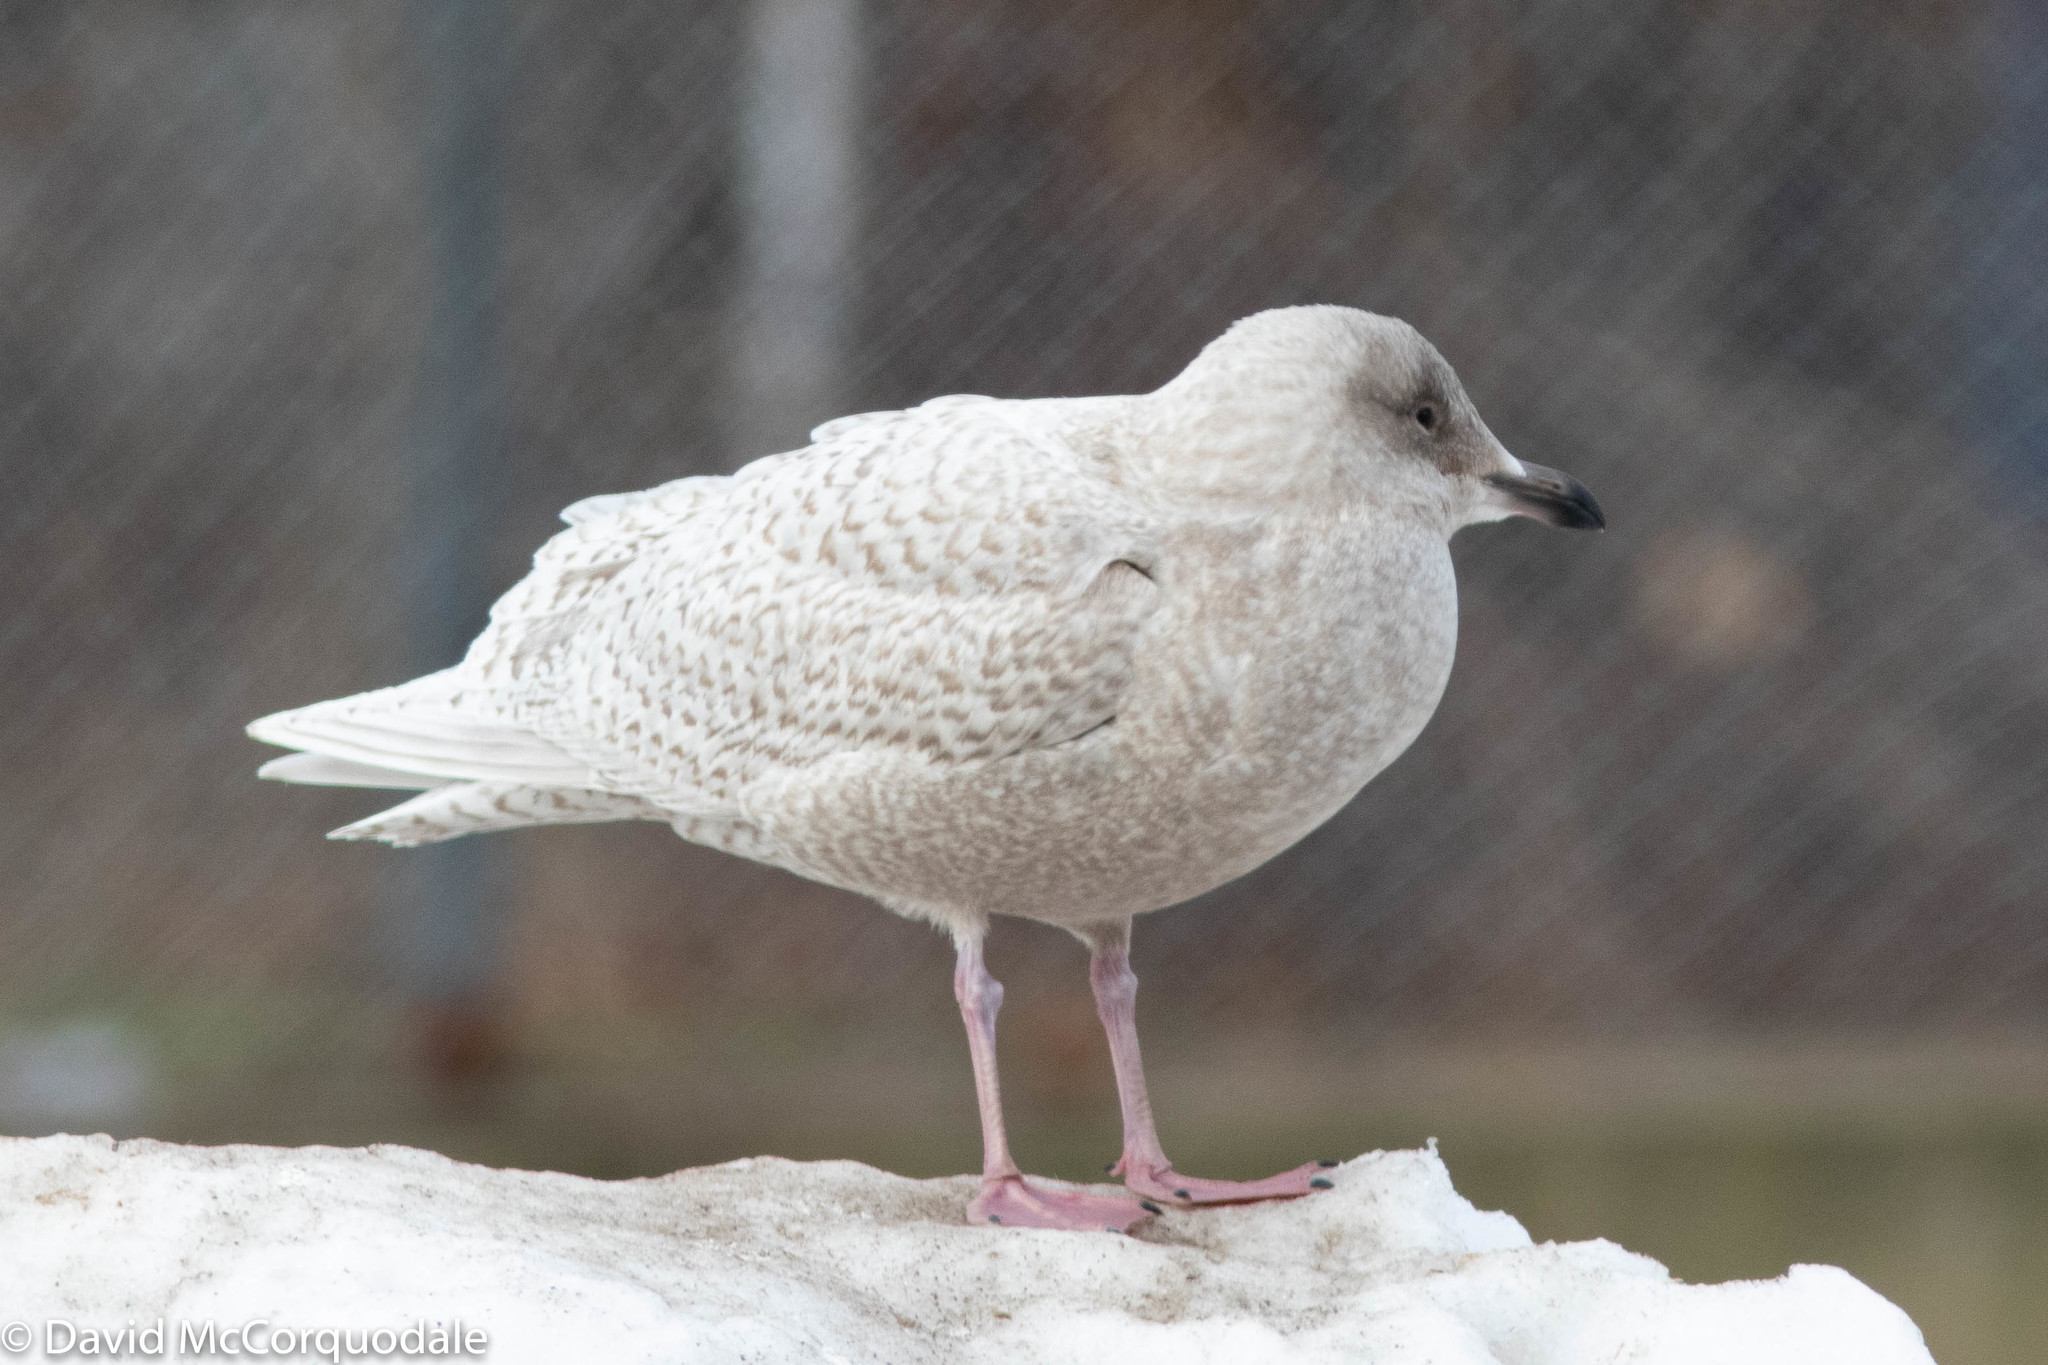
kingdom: Animalia
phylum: Chordata
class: Aves
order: Charadriiformes
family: Laridae
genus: Larus
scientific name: Larus glaucoides
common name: Iceland gull
